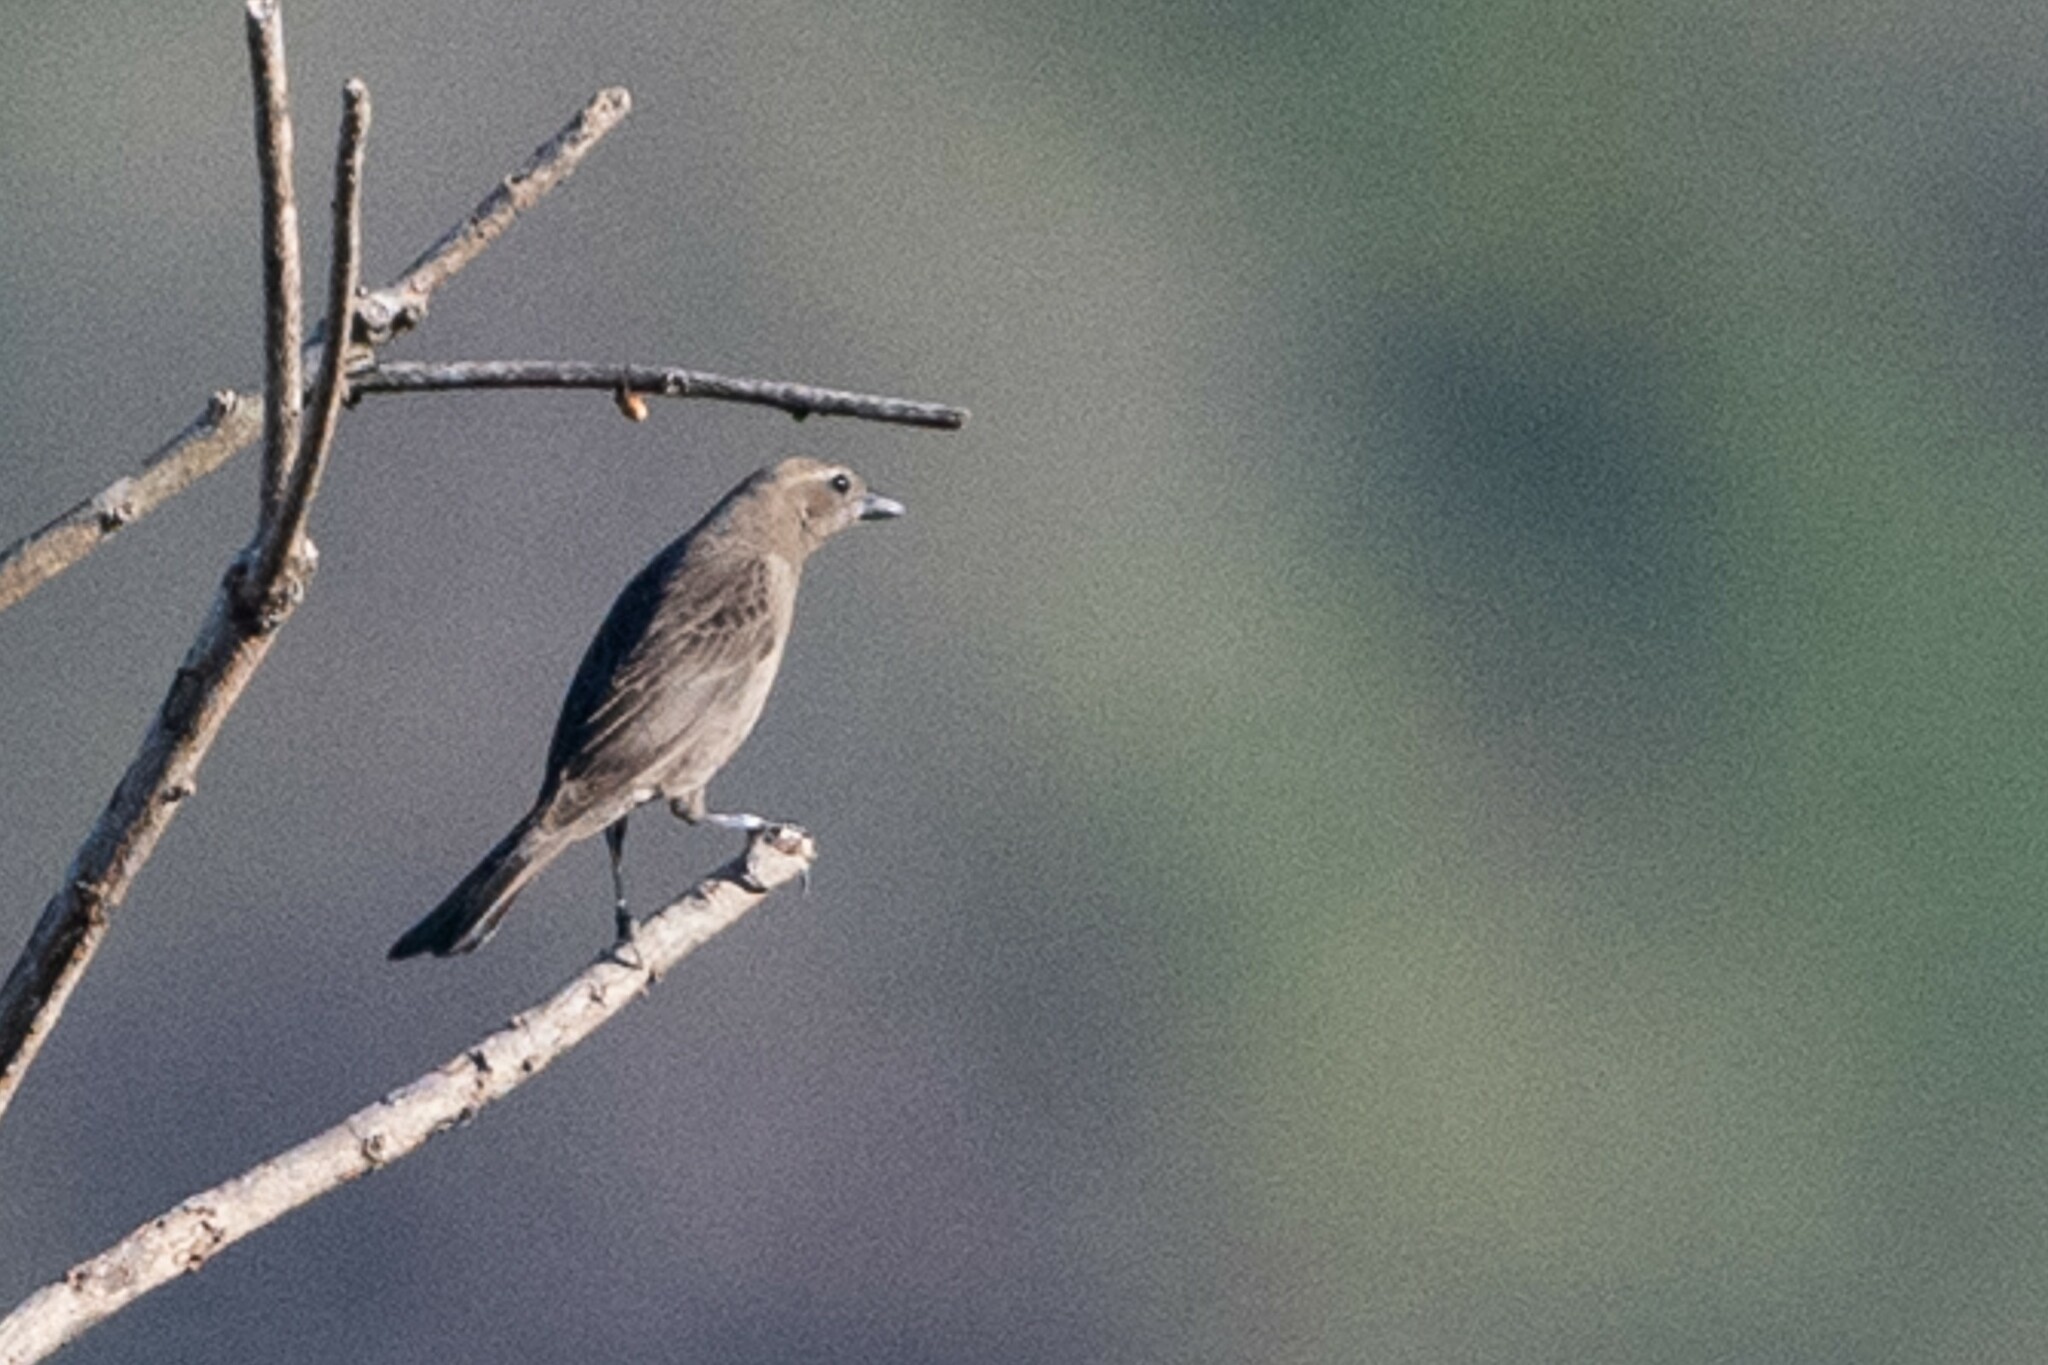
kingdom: Animalia
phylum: Chordata
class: Aves
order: Passeriformes
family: Icteridae
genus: Molothrus
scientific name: Molothrus bonariensis
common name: Shiny cowbird
